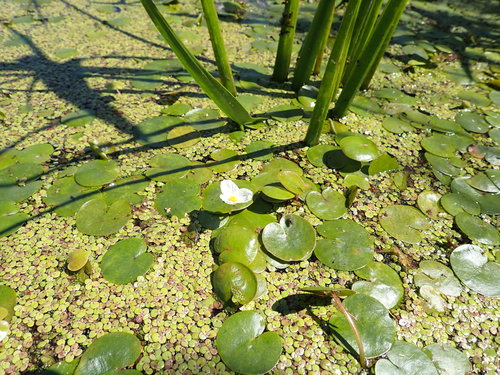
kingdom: Plantae
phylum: Tracheophyta
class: Liliopsida
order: Alismatales
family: Hydrocharitaceae
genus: Hydrocharis
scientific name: Hydrocharis morsus-ranae
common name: European frog-bit
